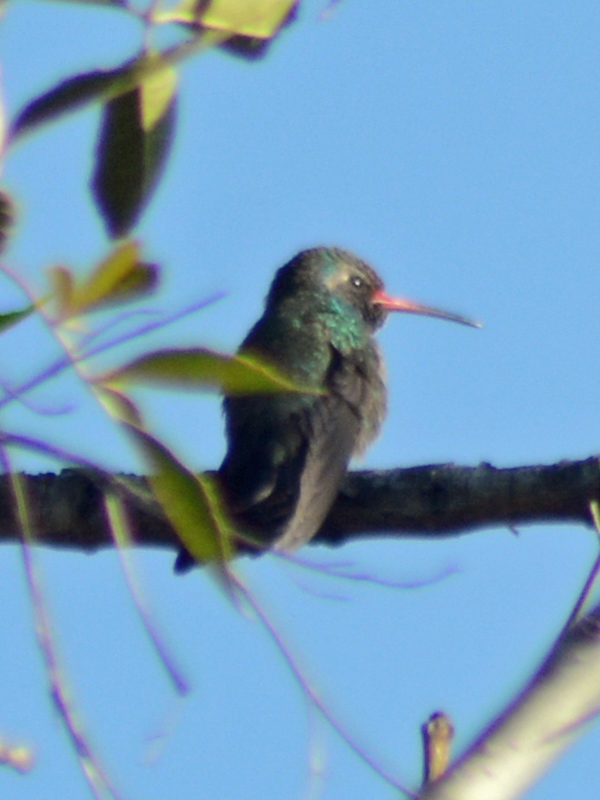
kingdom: Animalia
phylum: Chordata
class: Aves
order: Apodiformes
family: Trochilidae
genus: Cynanthus
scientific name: Cynanthus latirostris
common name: Broad-billed hummingbird
